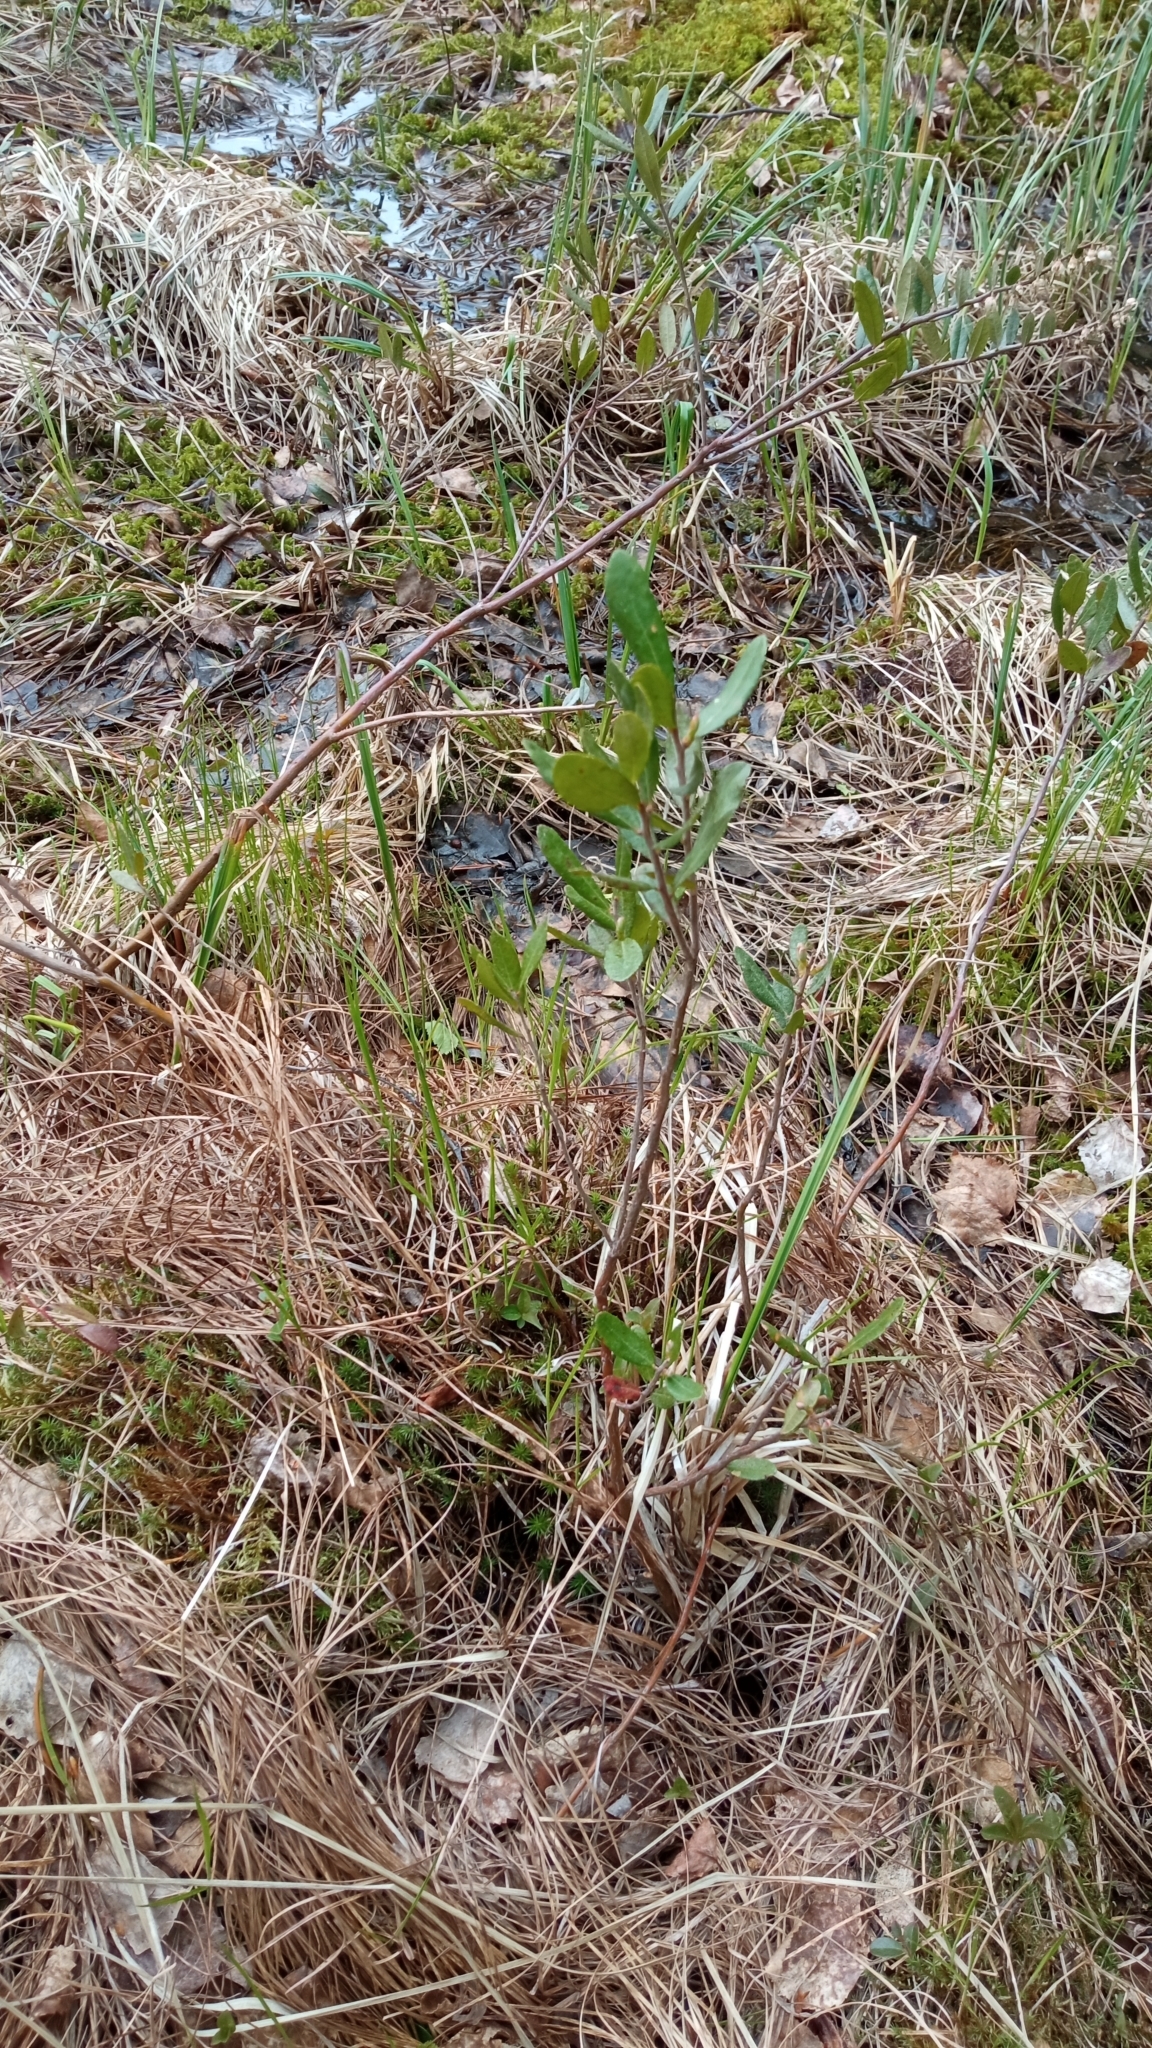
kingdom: Plantae
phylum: Tracheophyta
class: Magnoliopsida
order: Ericales
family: Ericaceae
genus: Chamaedaphne
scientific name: Chamaedaphne calyculata
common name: Leatherleaf
